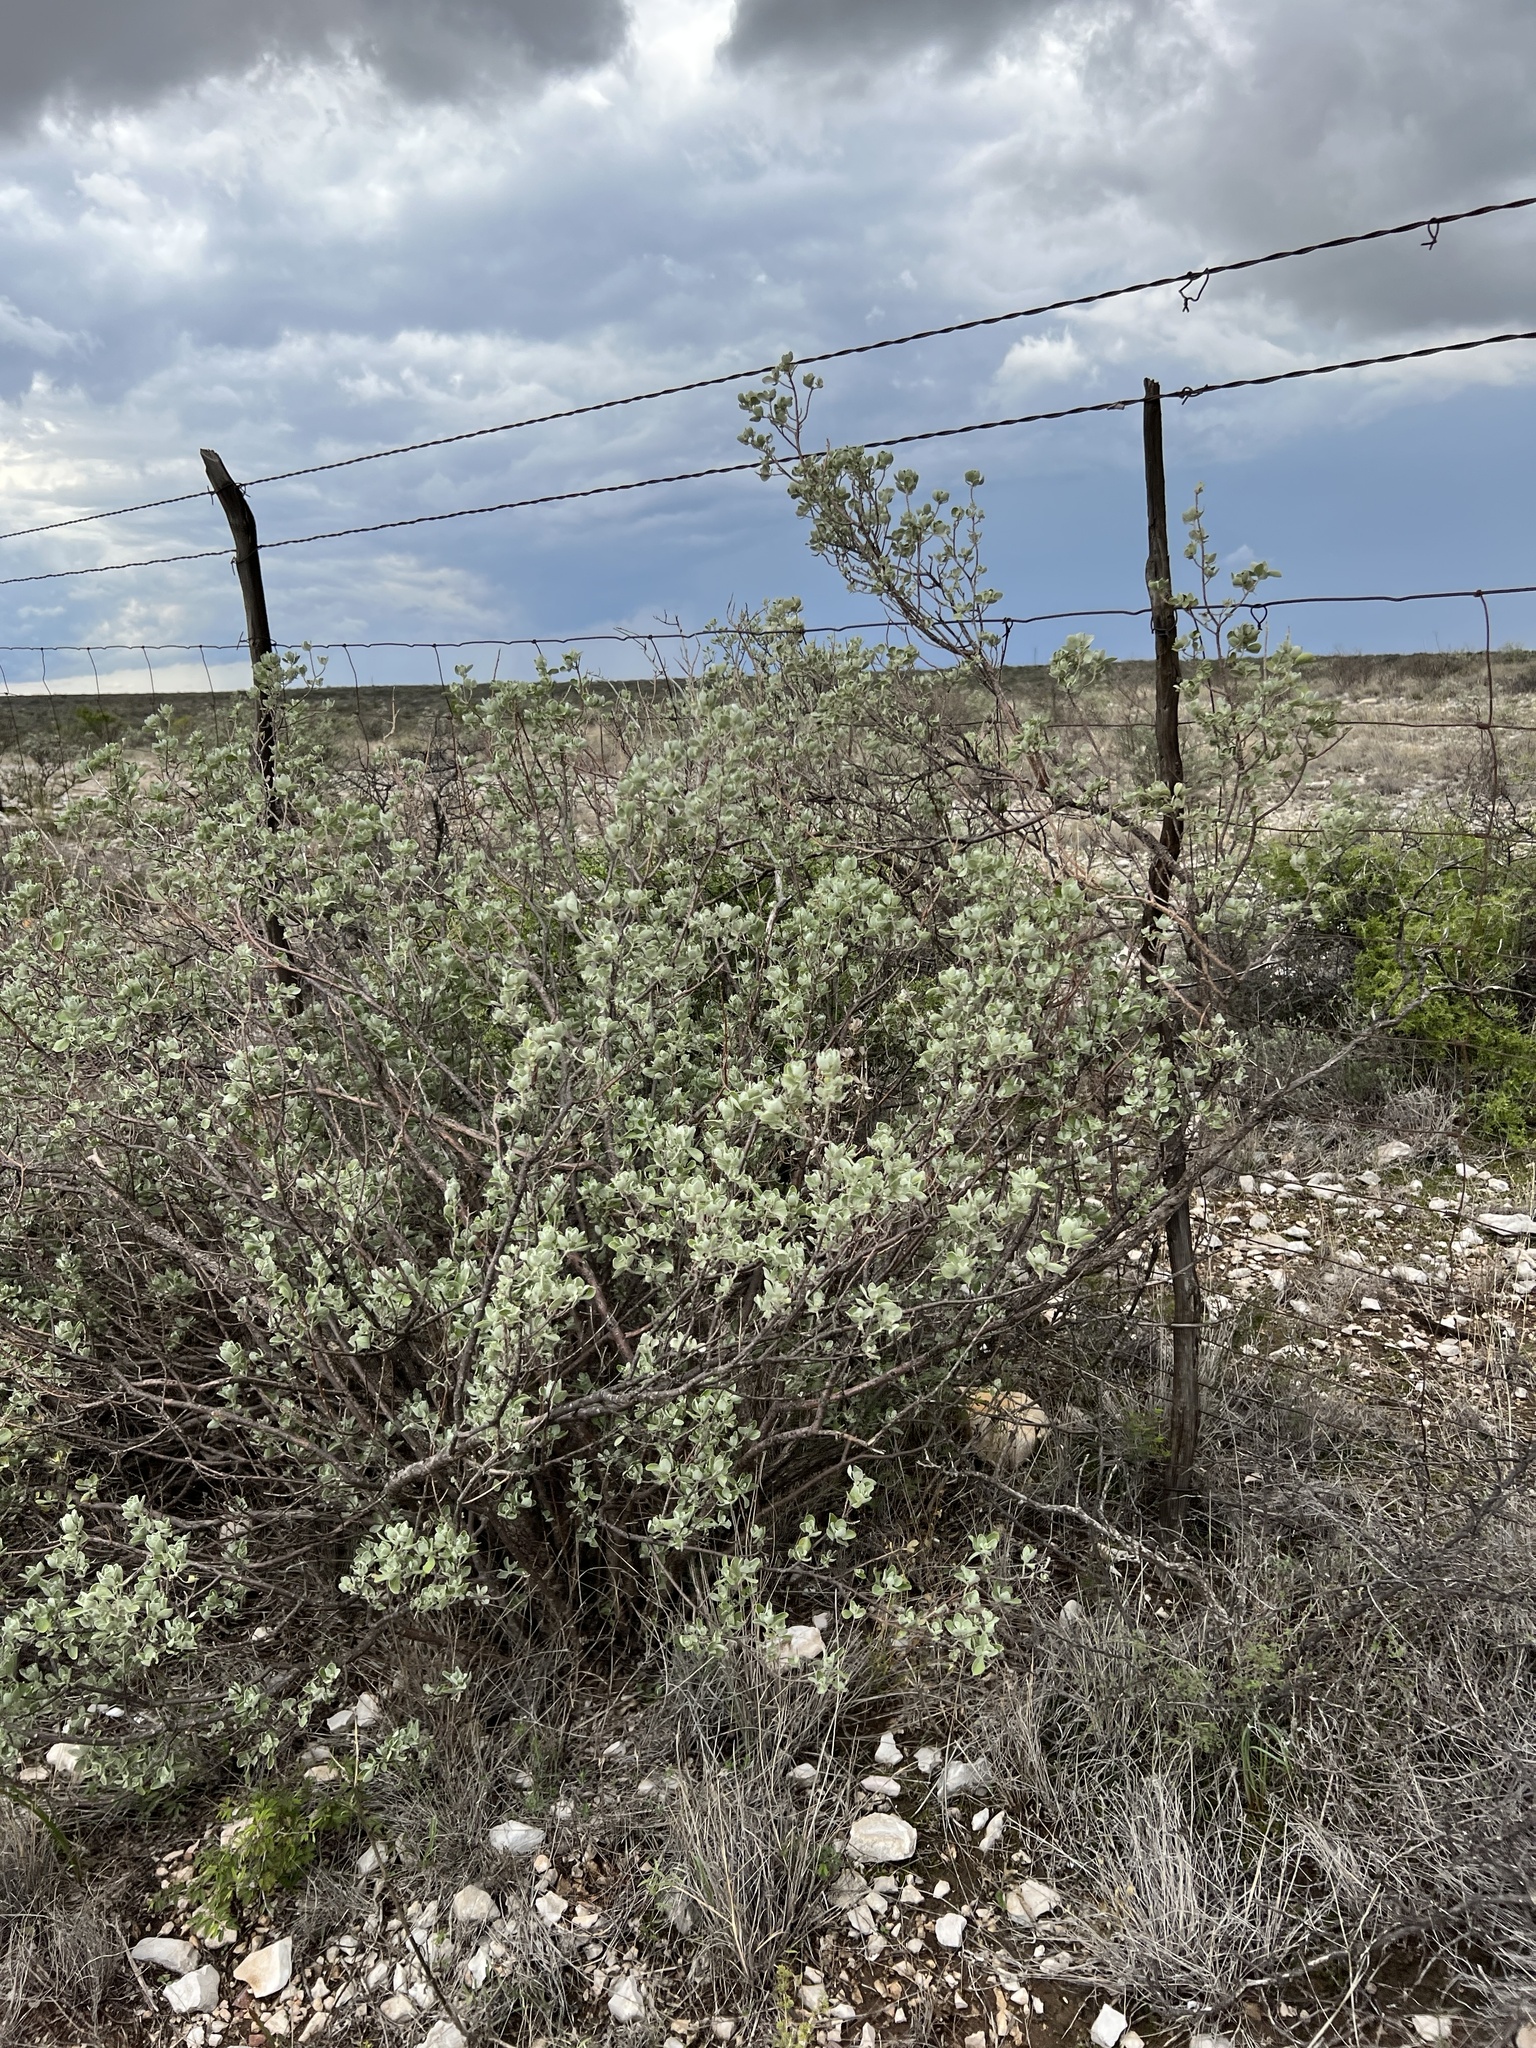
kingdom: Plantae
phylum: Tracheophyta
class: Magnoliopsida
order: Lamiales
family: Scrophulariaceae
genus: Leucophyllum
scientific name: Leucophyllum frutescens
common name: Texas silverleaf
